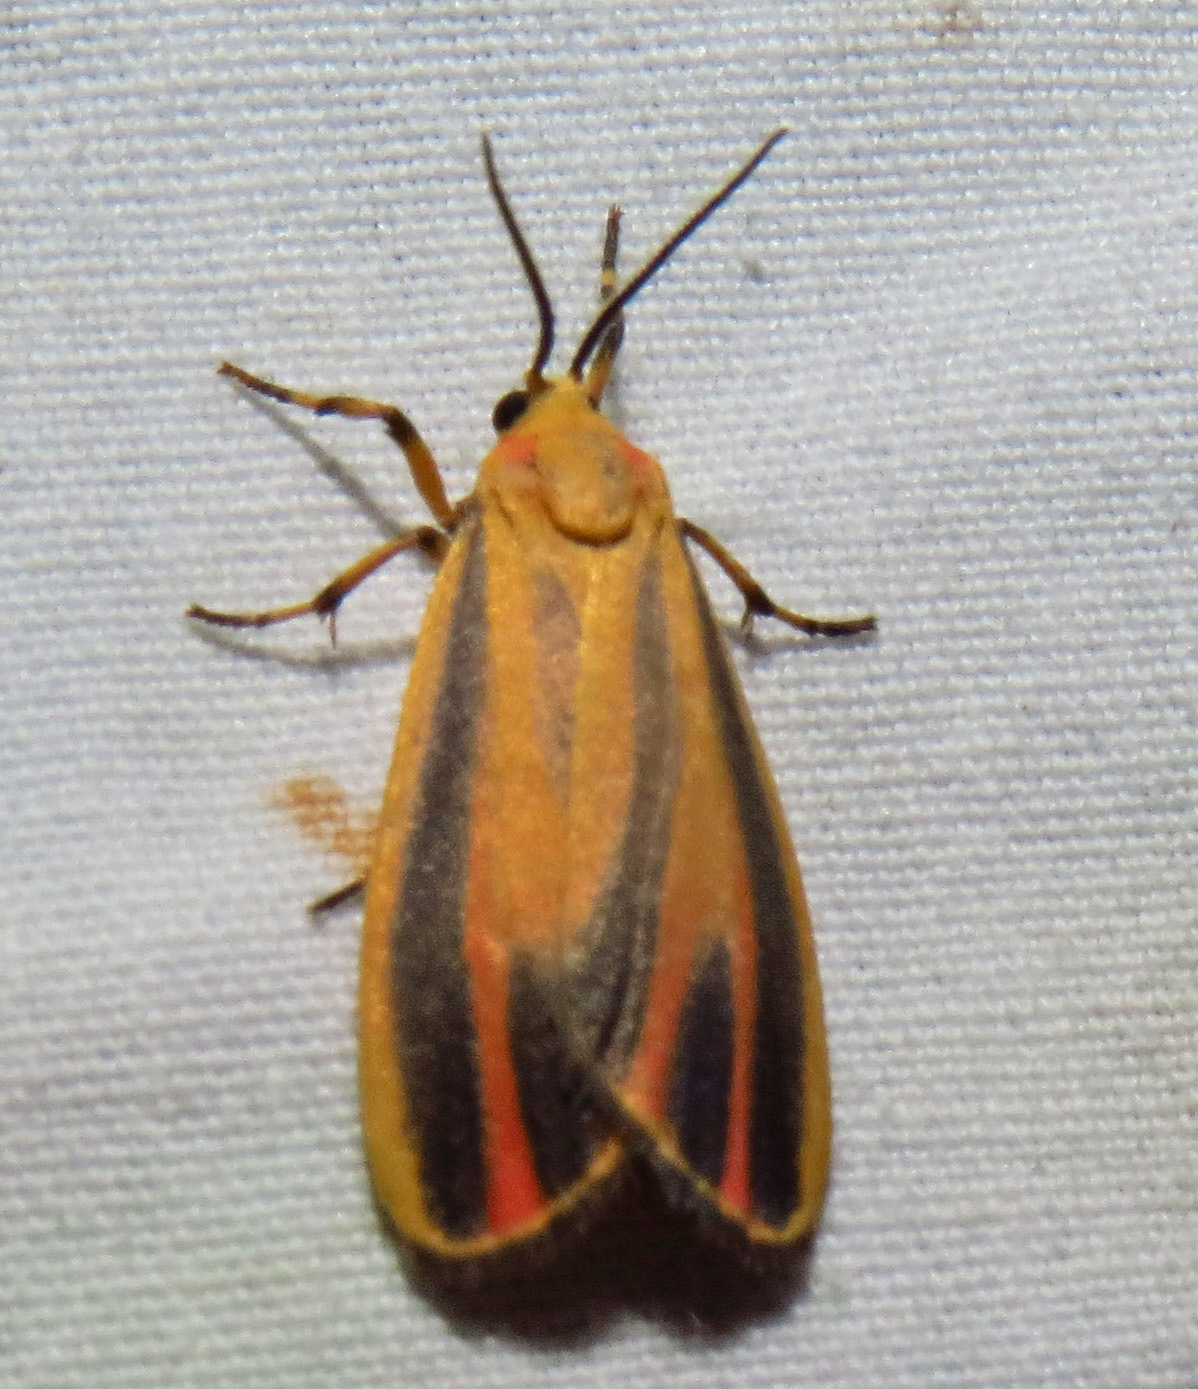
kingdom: Animalia
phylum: Arthropoda
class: Insecta
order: Lepidoptera
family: Erebidae
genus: Hypoprepia
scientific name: Hypoprepia fucosa
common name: Painted lichen moth
